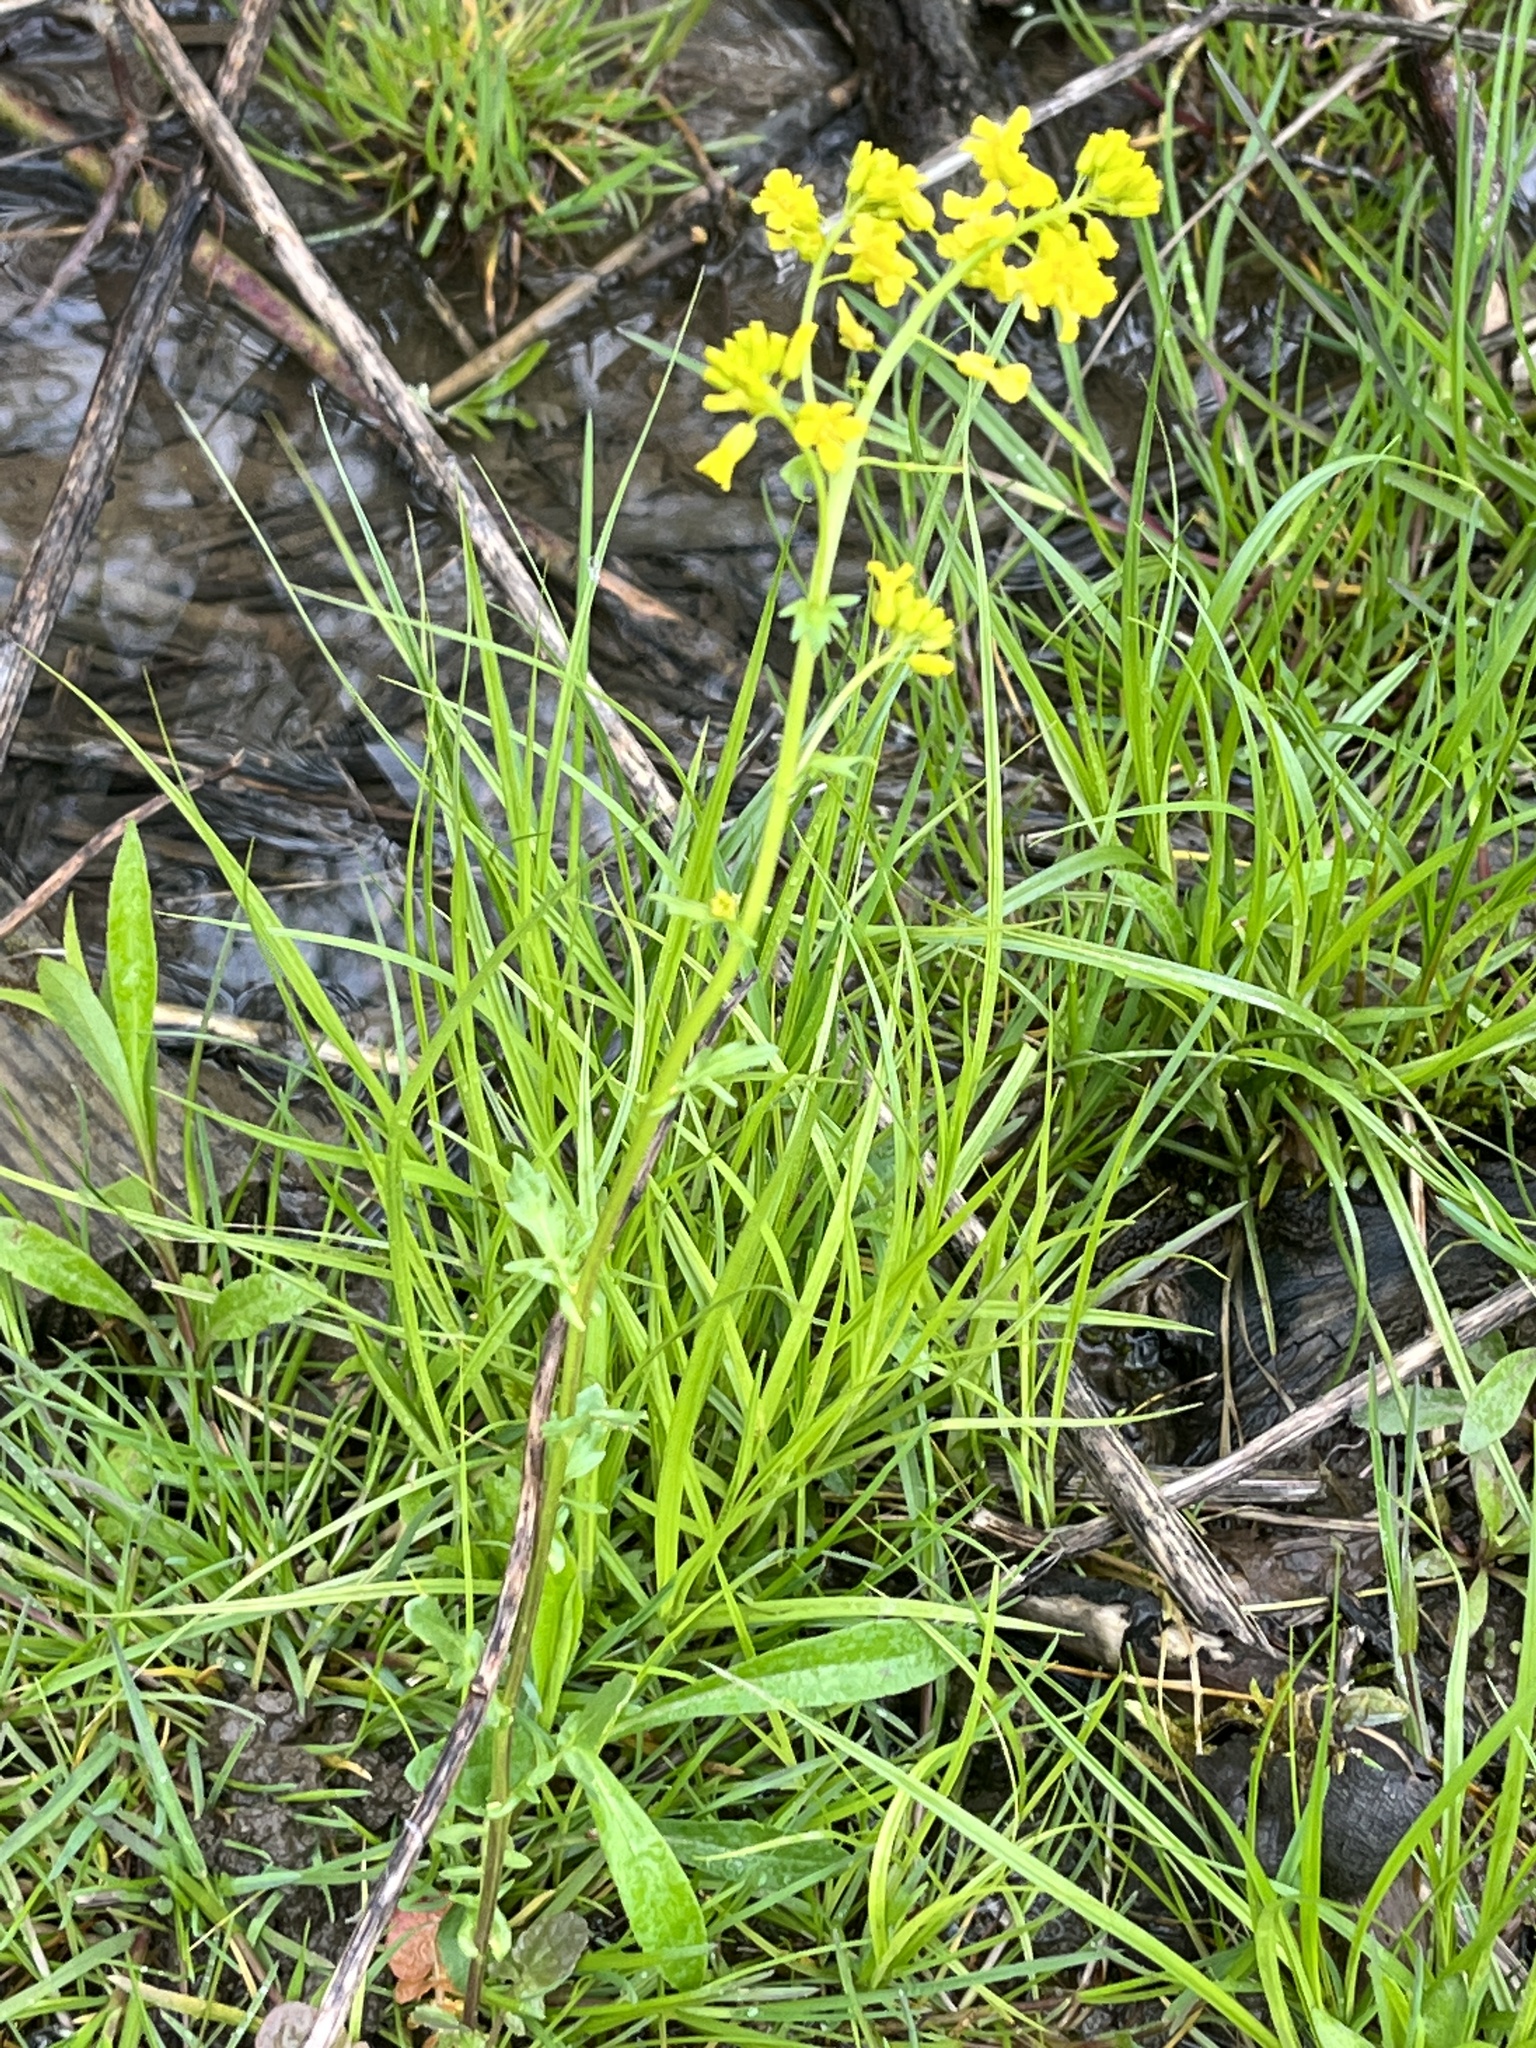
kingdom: Plantae
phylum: Tracheophyta
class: Magnoliopsida
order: Brassicales
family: Brassicaceae
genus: Barbarea
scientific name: Barbarea vulgaris
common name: Cressy-greens
